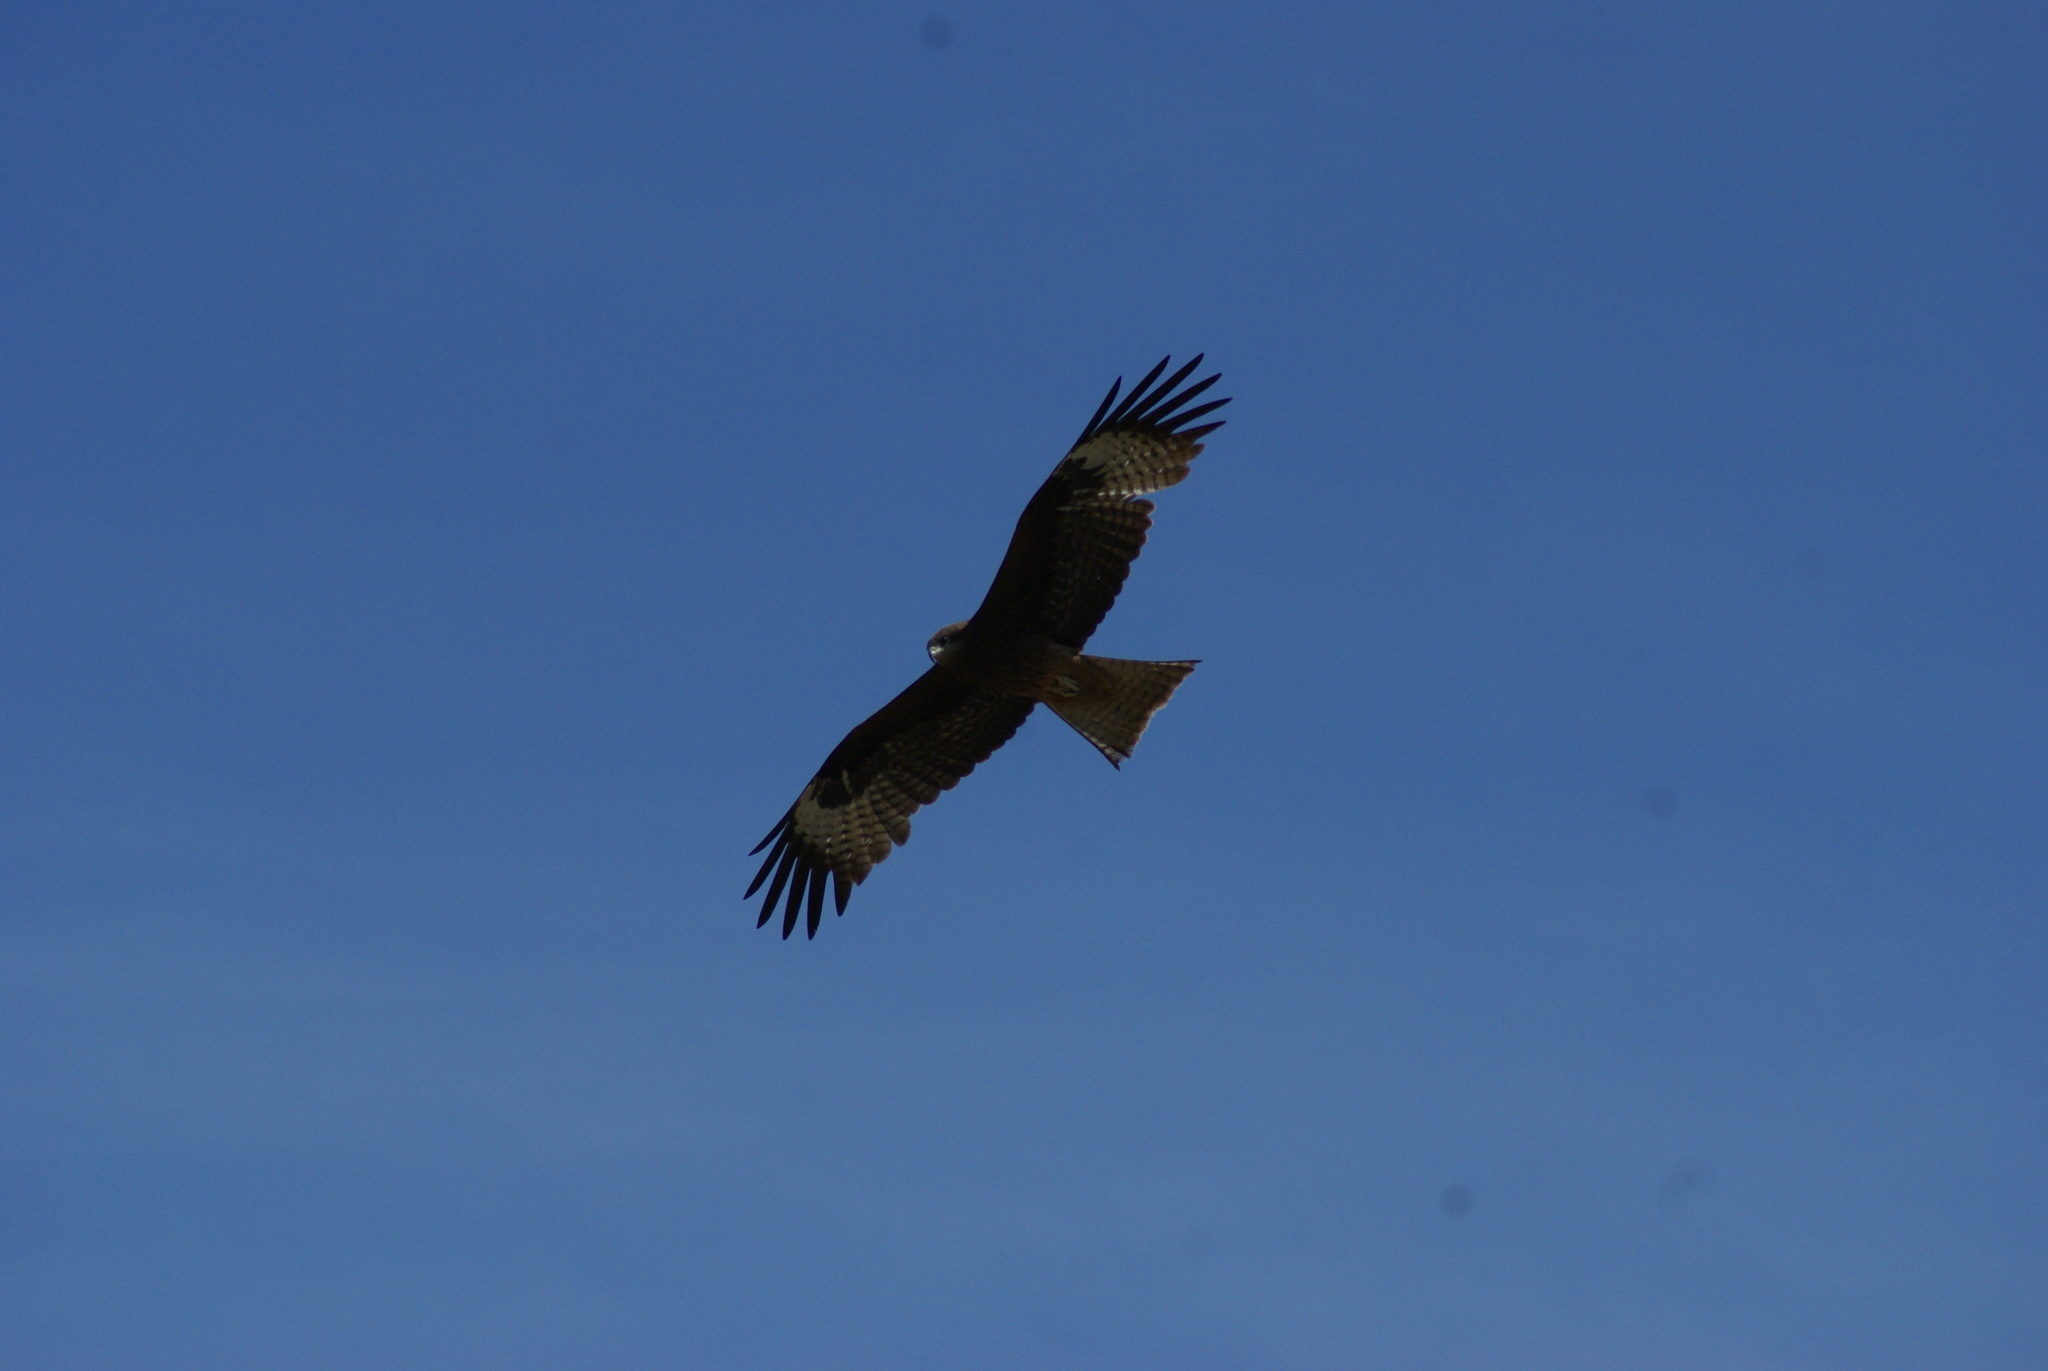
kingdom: Animalia
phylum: Chordata
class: Aves
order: Accipitriformes
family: Accipitridae
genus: Milvus
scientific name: Milvus migrans
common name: Black kite
